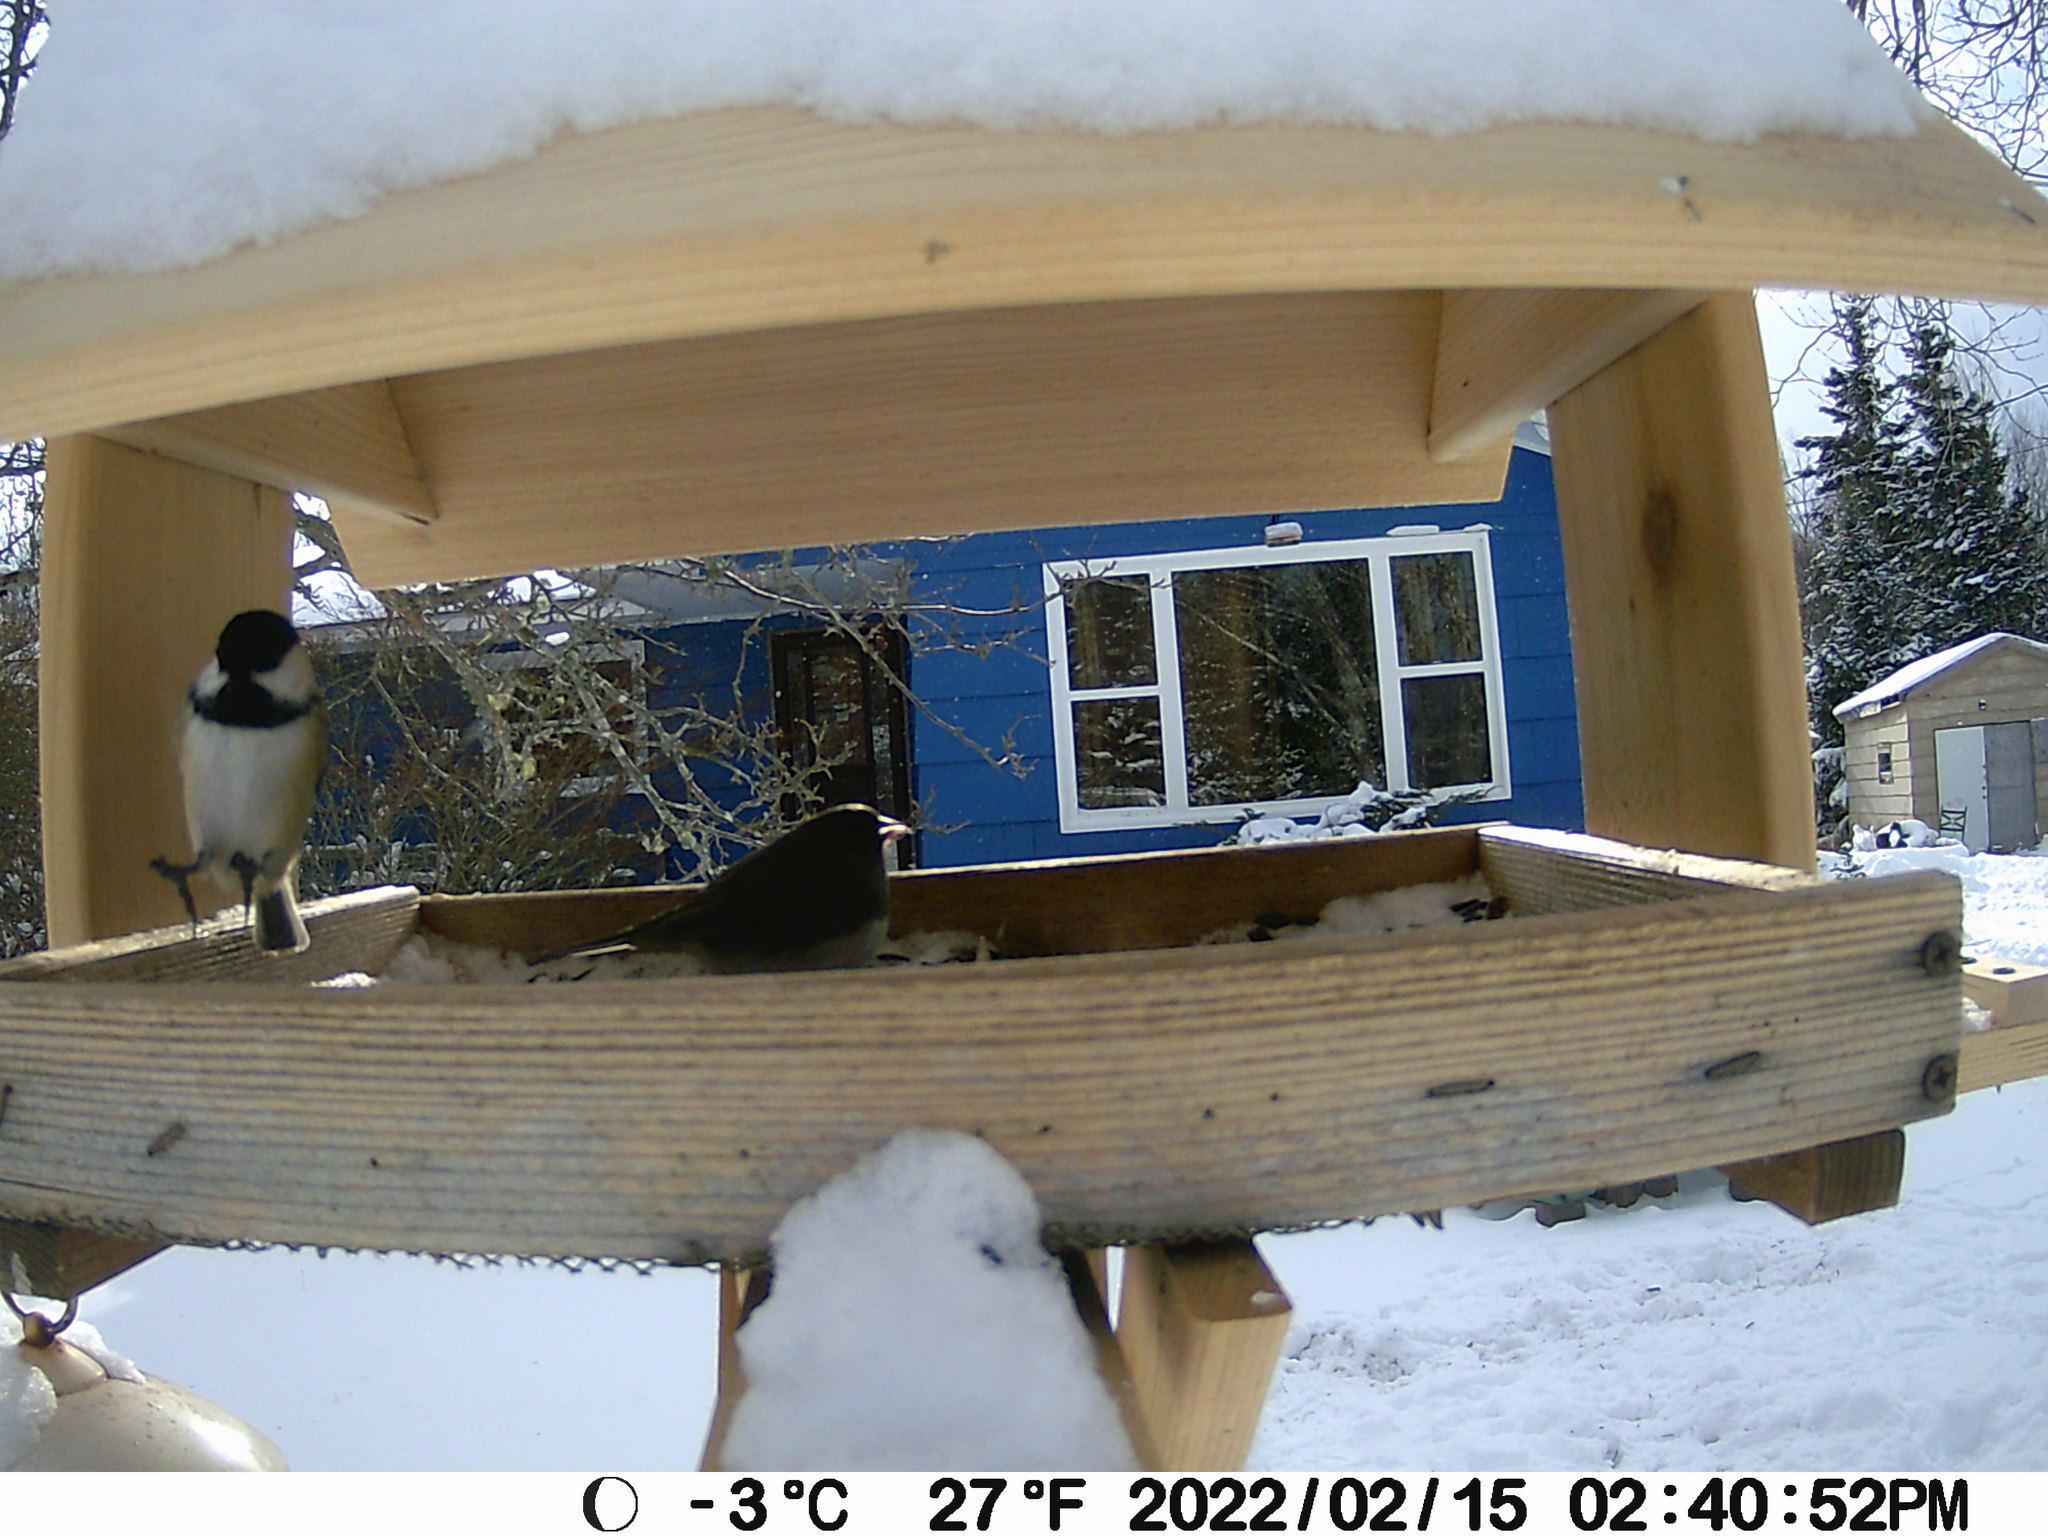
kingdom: Animalia
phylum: Chordata
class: Aves
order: Passeriformes
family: Paridae
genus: Poecile
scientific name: Poecile atricapillus
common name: Black-capped chickadee
